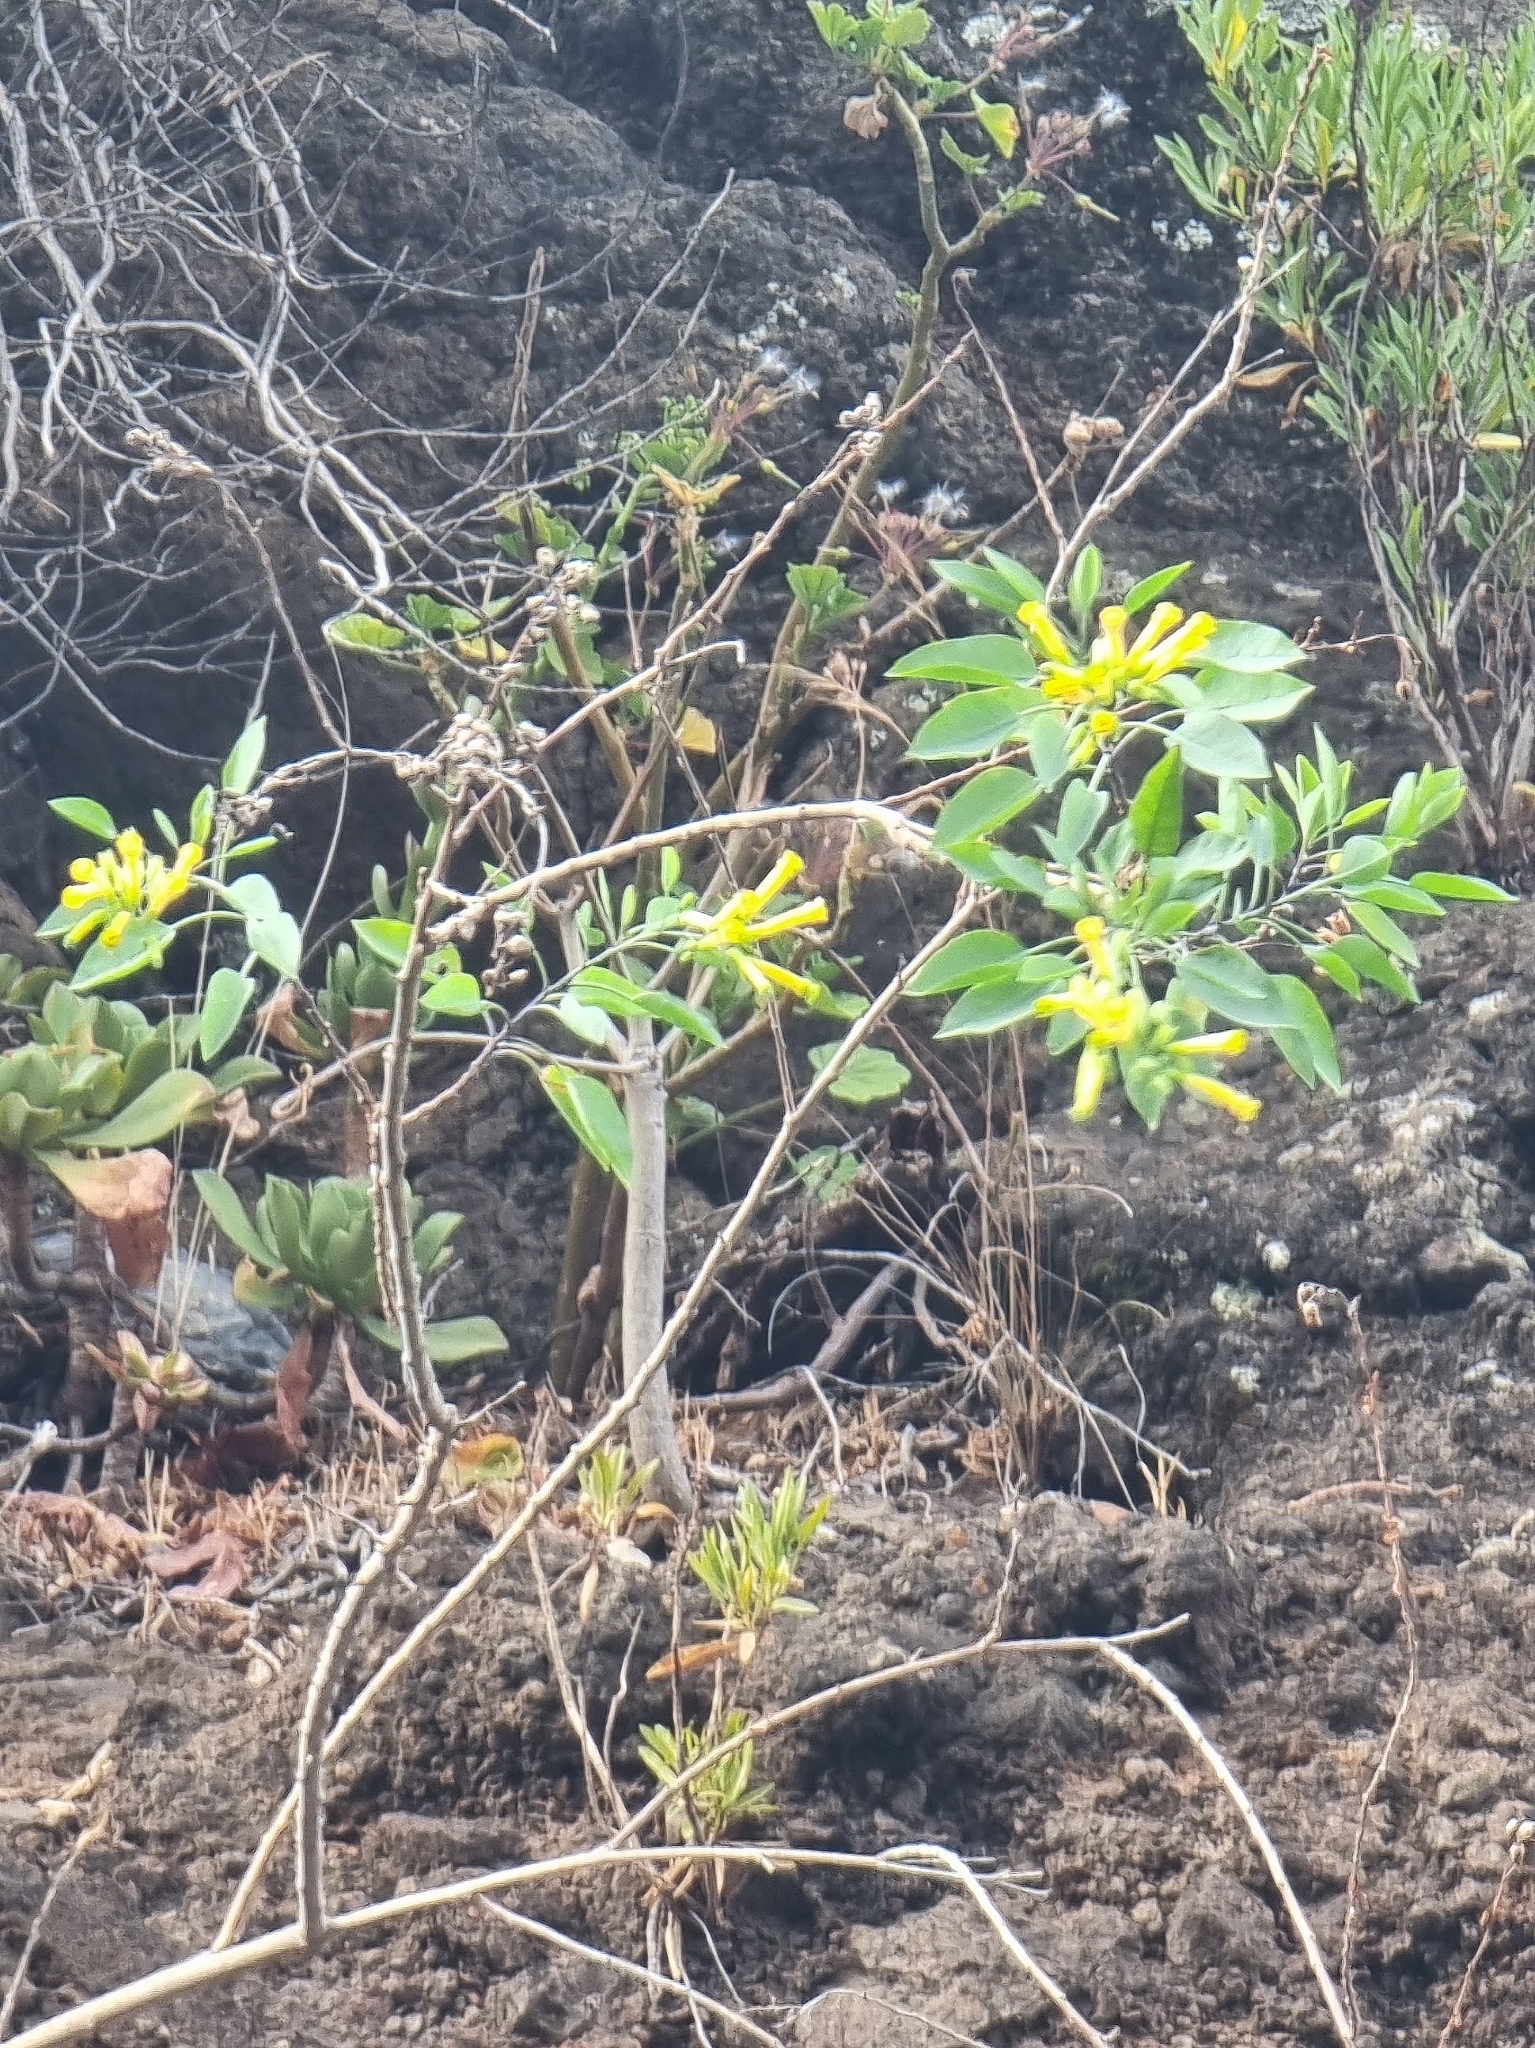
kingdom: Plantae
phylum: Tracheophyta
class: Magnoliopsida
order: Solanales
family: Solanaceae
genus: Nicotiana
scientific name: Nicotiana glauca
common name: Tree tobacco
